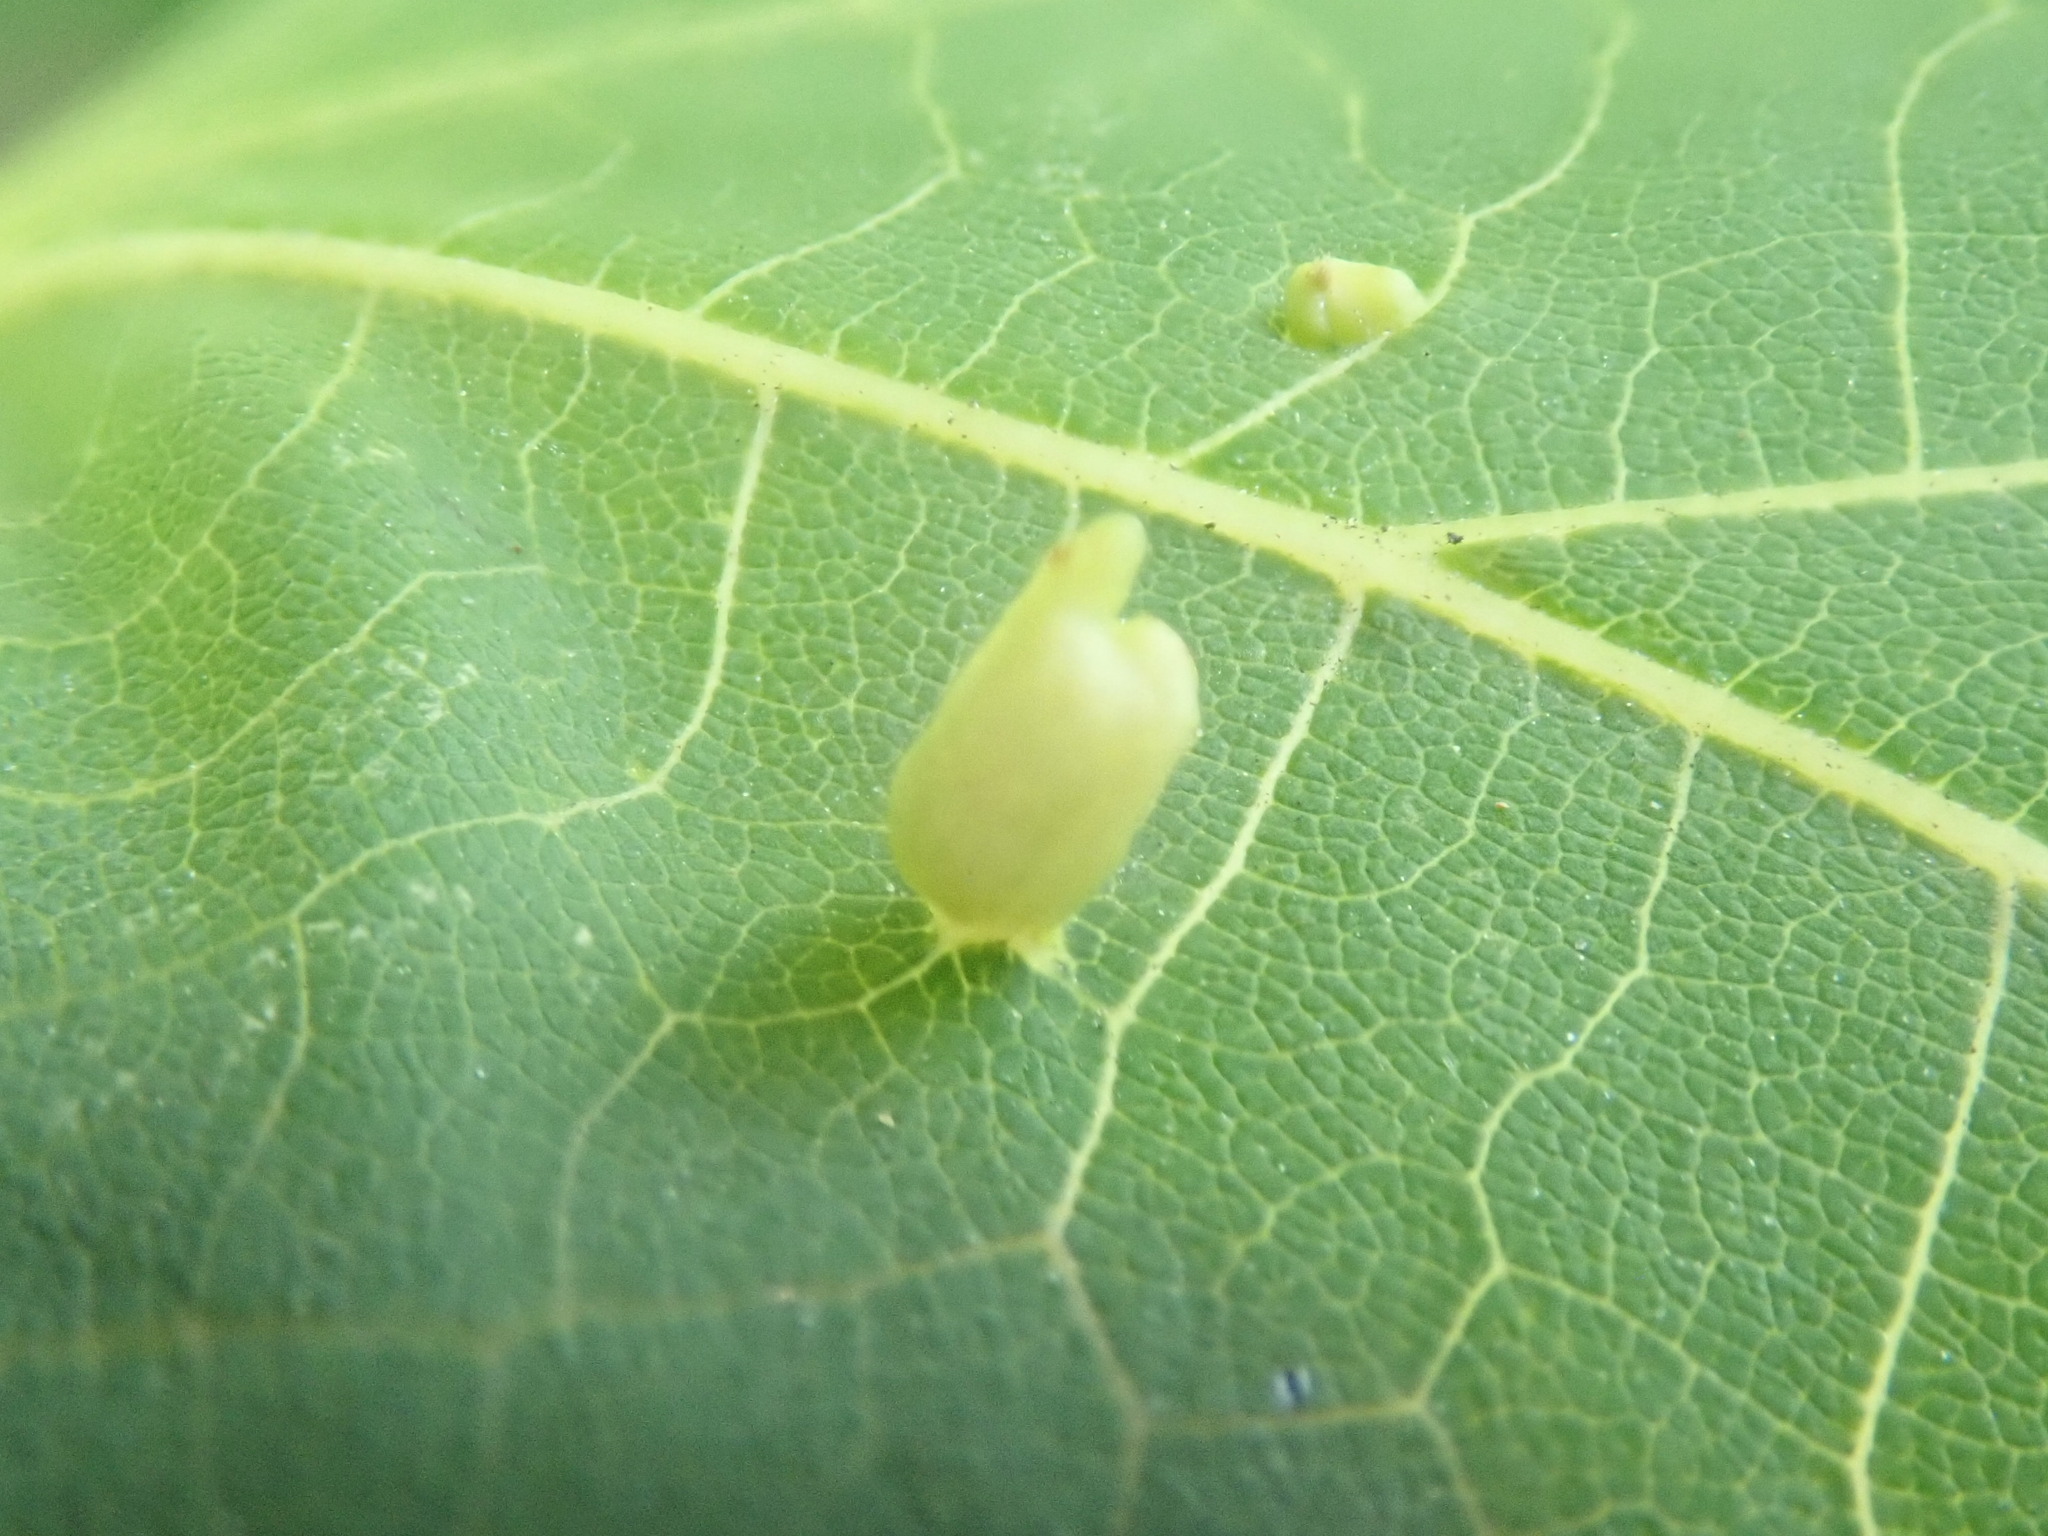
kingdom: Animalia
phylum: Arthropoda
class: Arachnida
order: Trombidiformes
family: Eriophyidae
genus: Eriophyes
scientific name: Eriophyes tiliae
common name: Red nail gall mite
